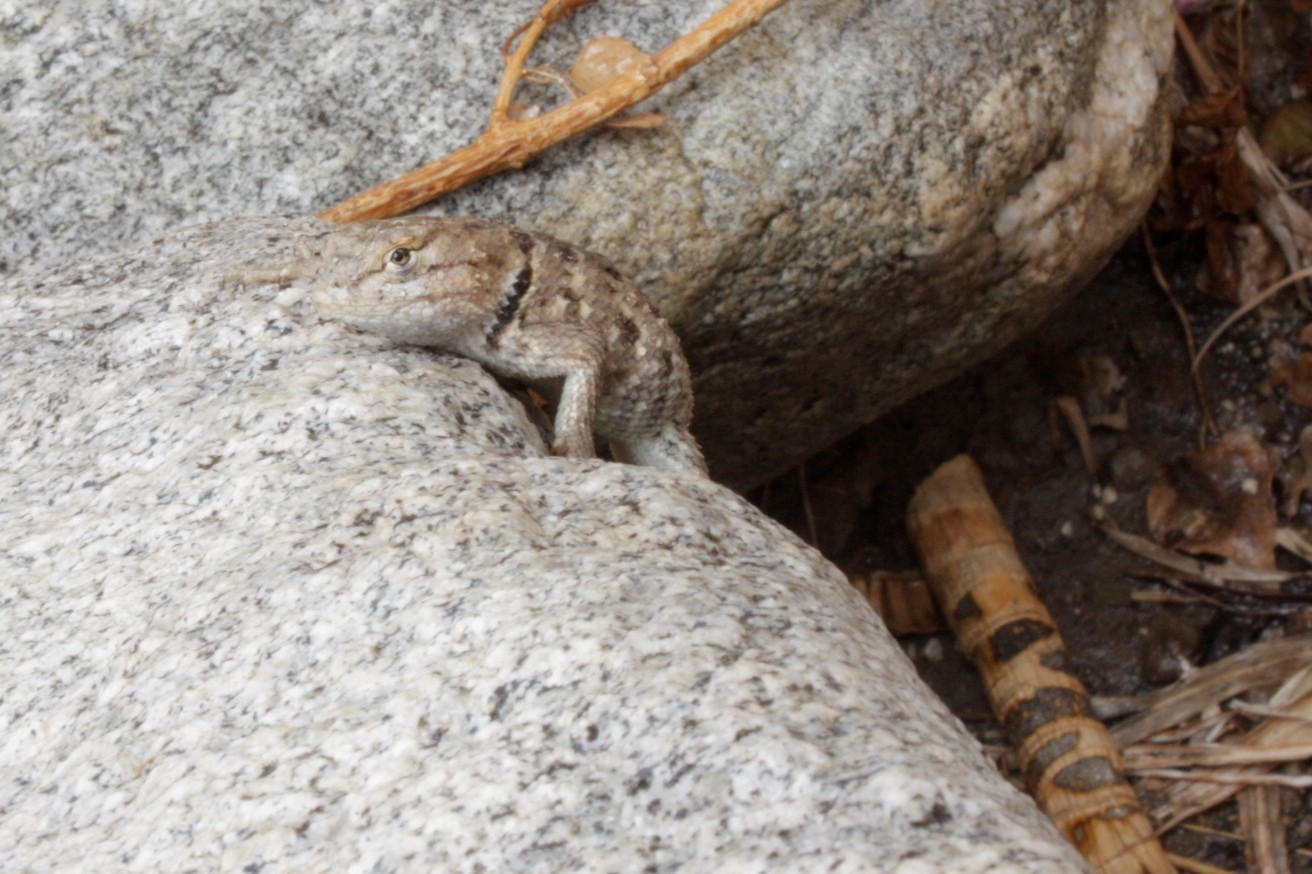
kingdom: Animalia
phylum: Chordata
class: Squamata
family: Phrynosomatidae
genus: Sceloporus
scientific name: Sceloporus magister
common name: Desert spiny lizard
